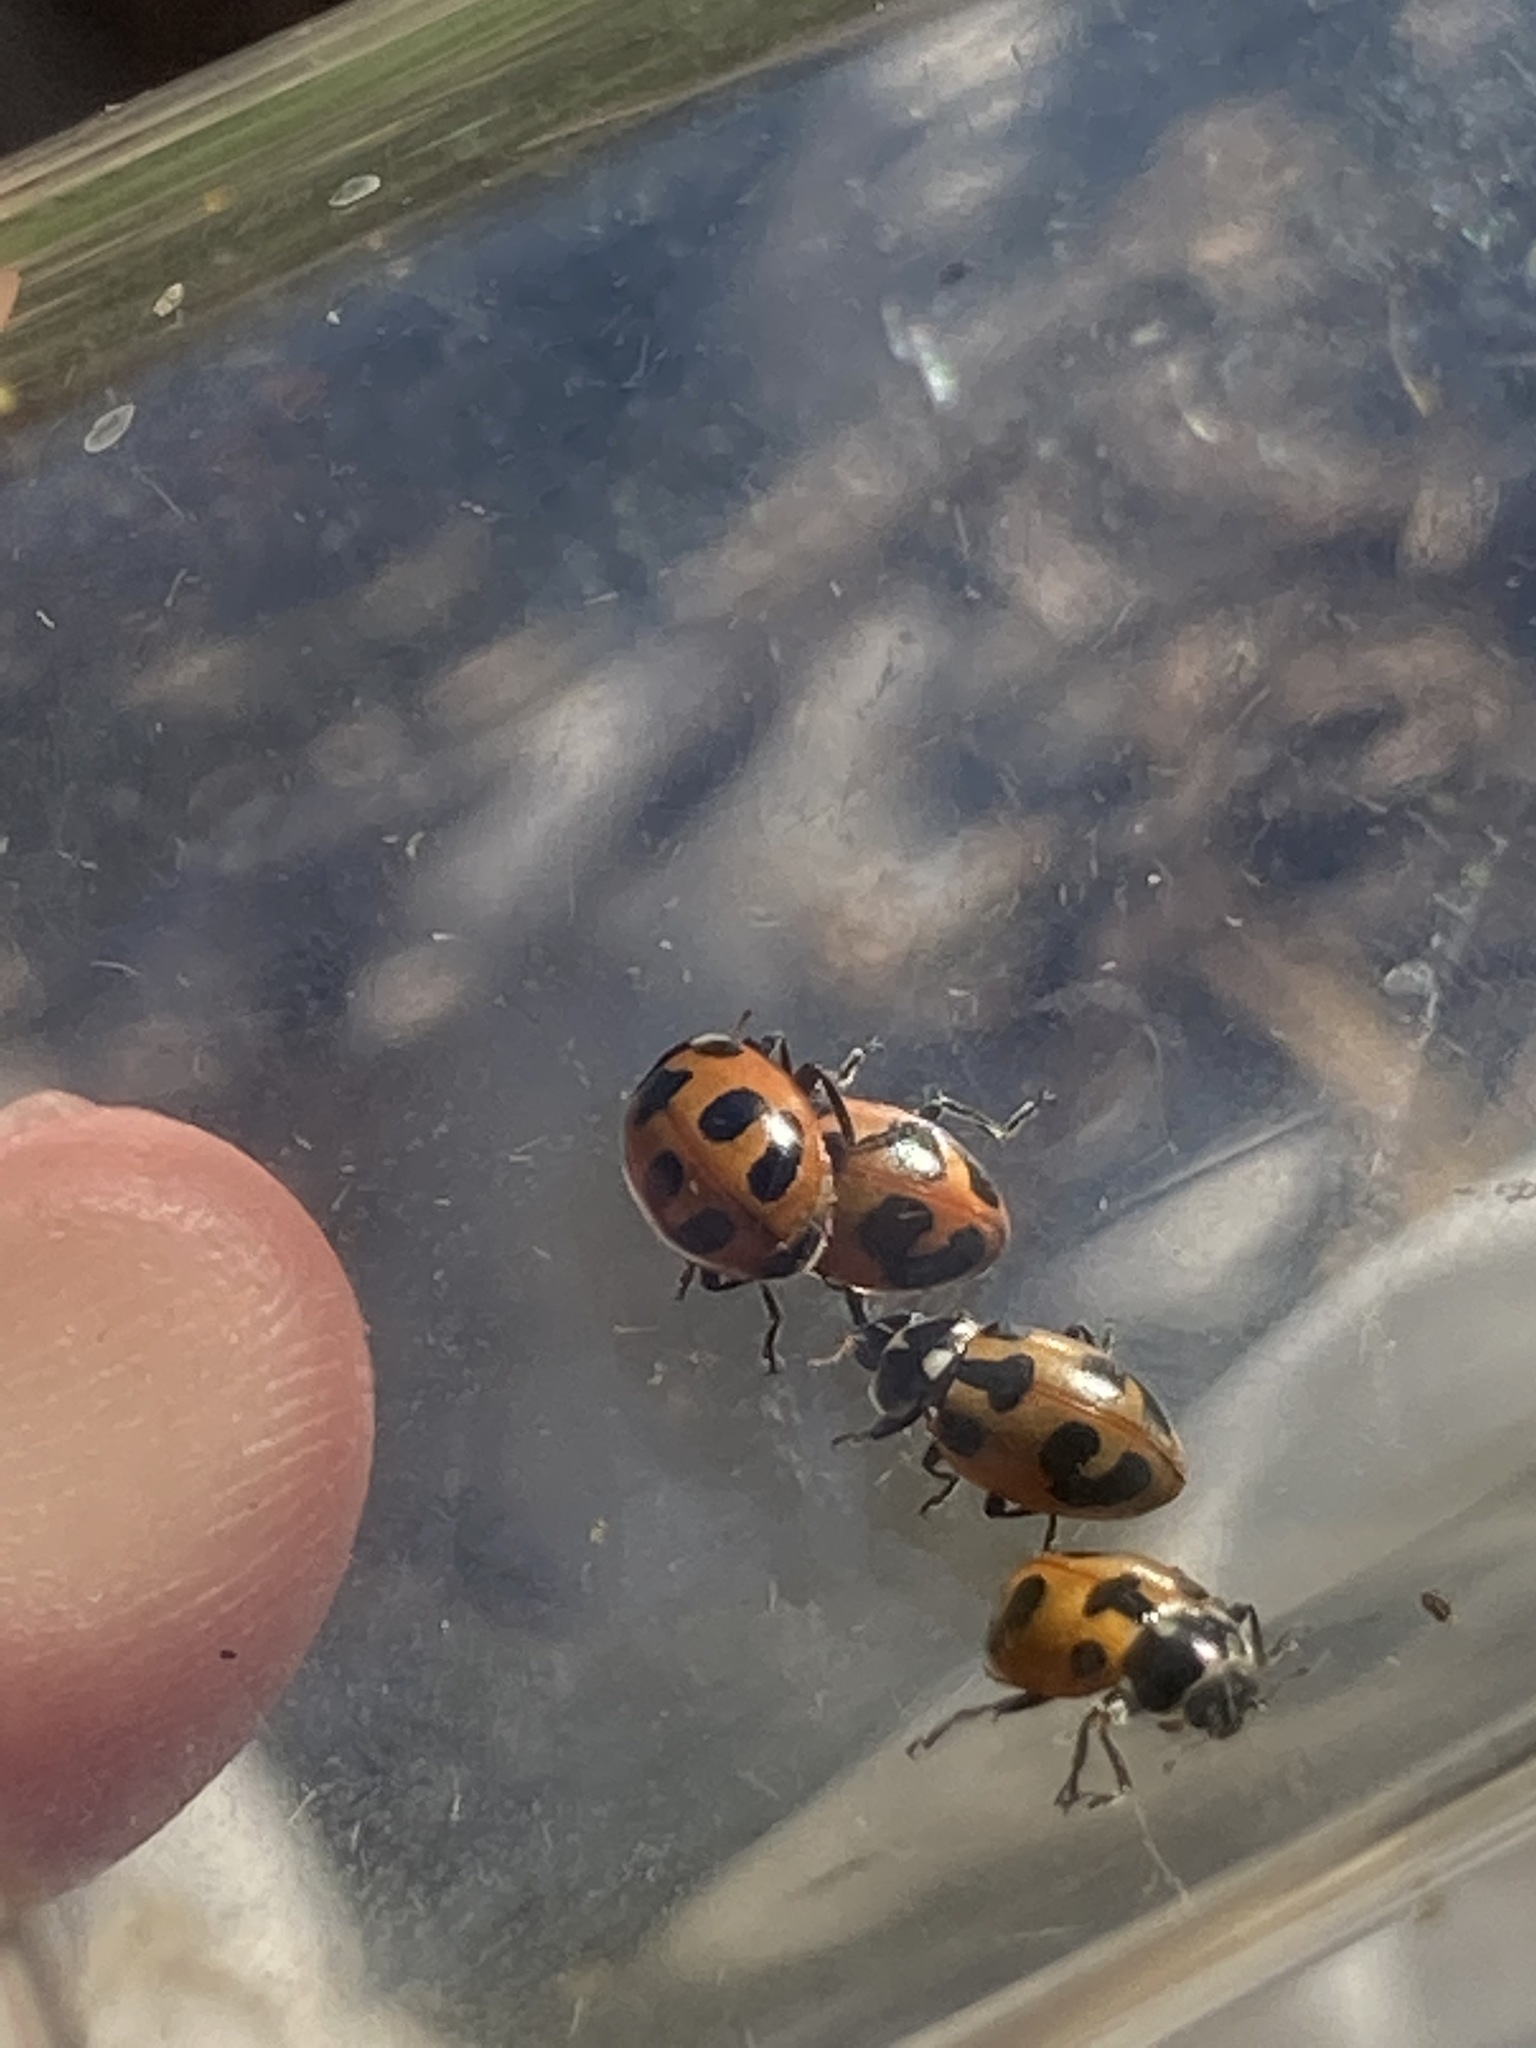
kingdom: Animalia
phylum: Arthropoda
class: Insecta
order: Coleoptera
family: Coccinellidae
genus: Hippodamia
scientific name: Hippodamia parenthesis
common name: Parenthesis lady beetle
